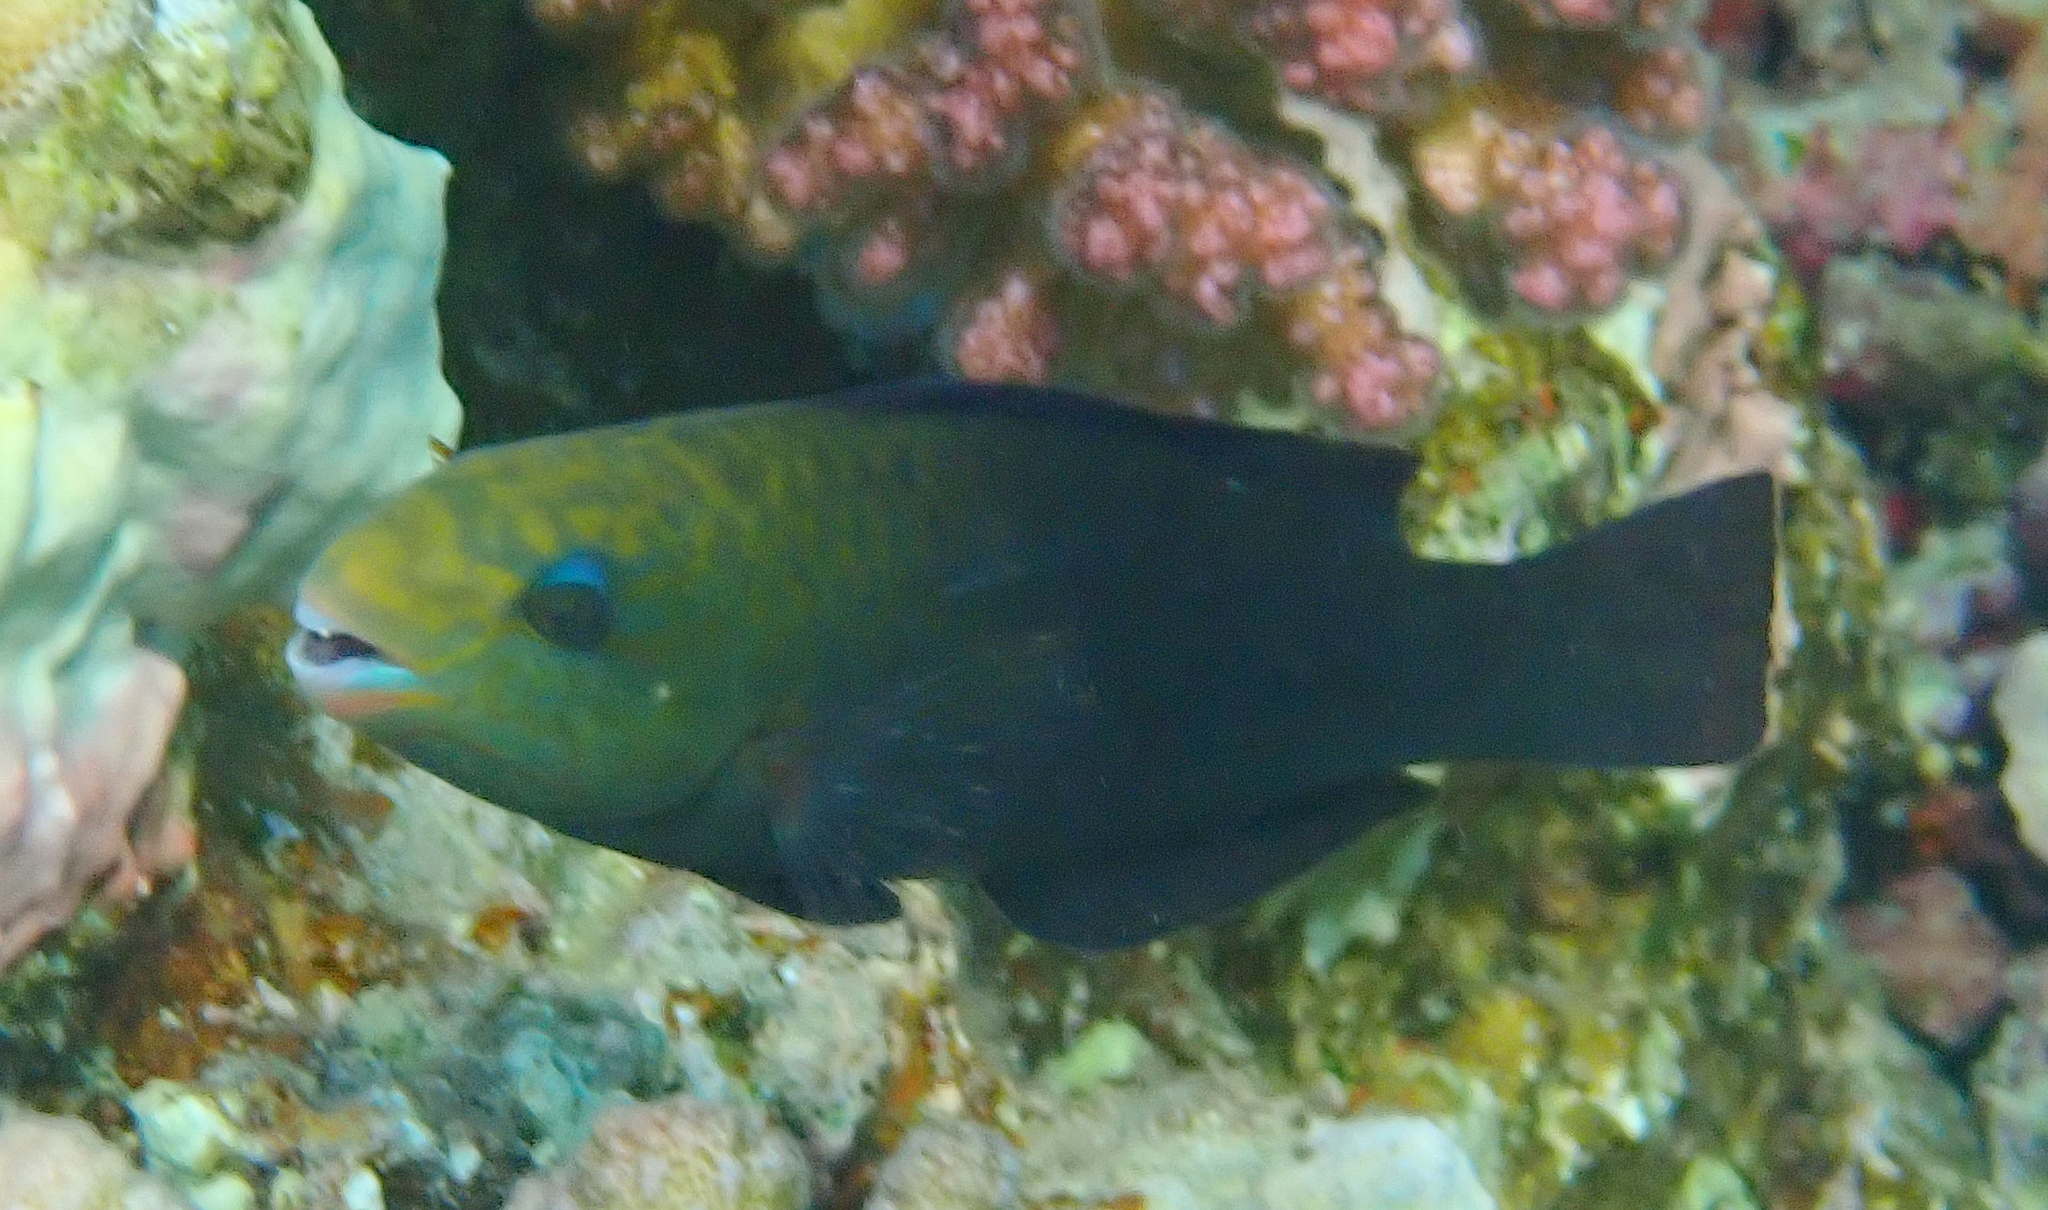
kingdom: Animalia
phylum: Chordata
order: Perciformes
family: Scaridae
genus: Chlorurus
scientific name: Chlorurus sordidus
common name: Bullethead parrotfish
